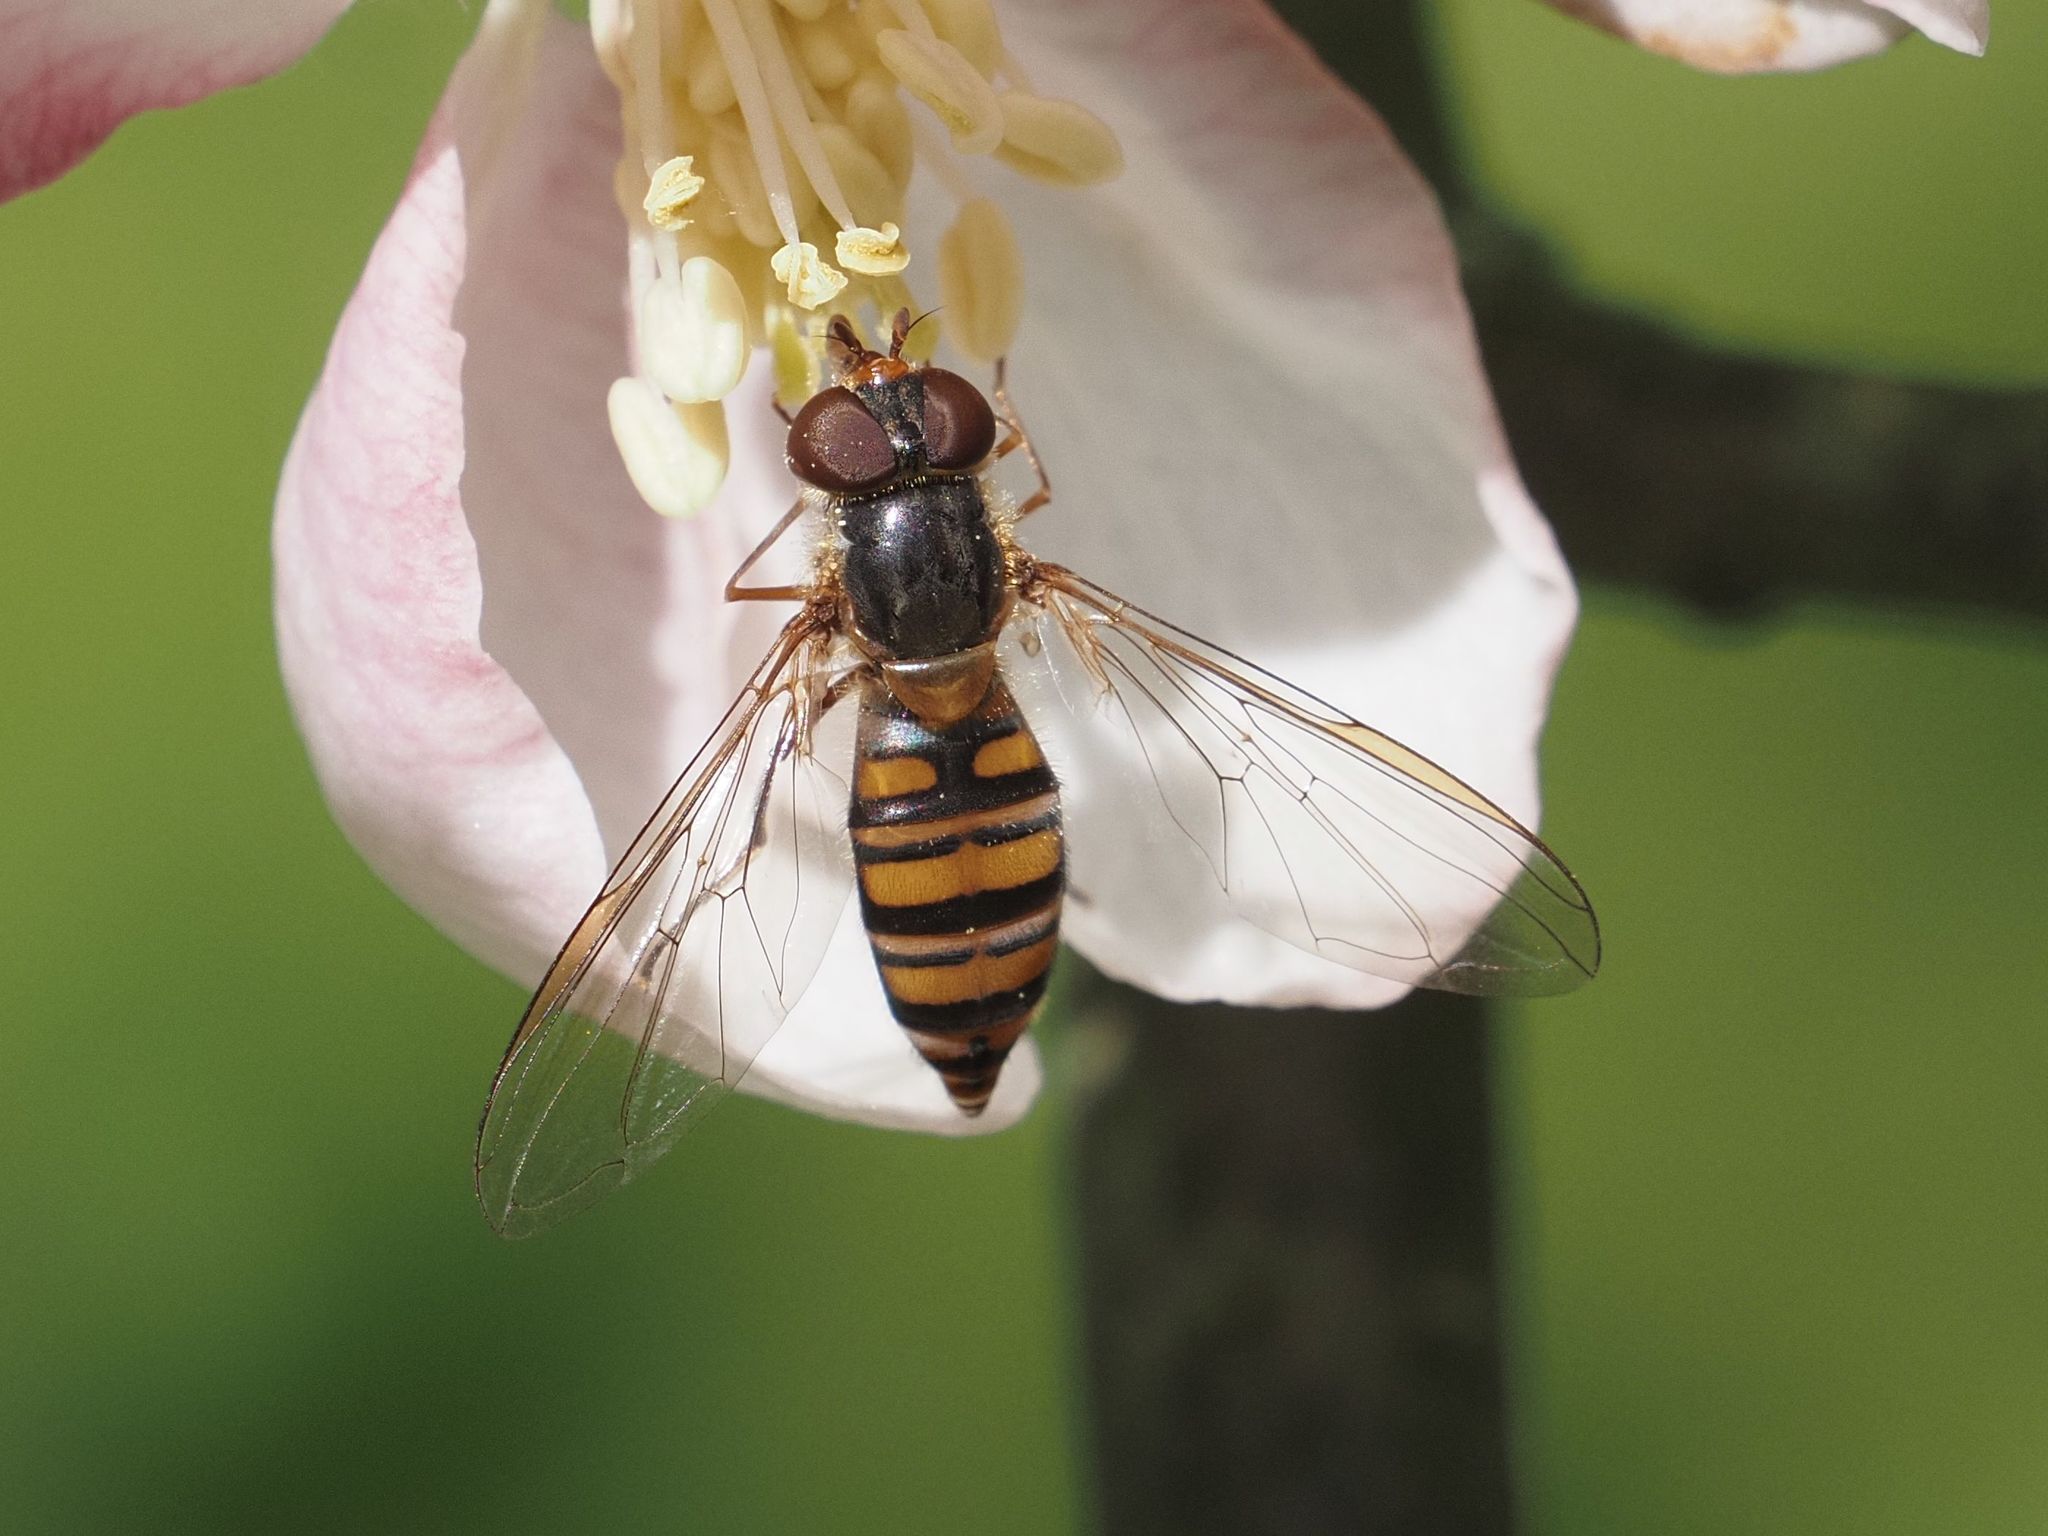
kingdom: Animalia
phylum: Arthropoda
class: Insecta
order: Diptera
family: Syrphidae
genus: Episyrphus
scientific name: Episyrphus balteatus
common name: Marmalade hoverfly
